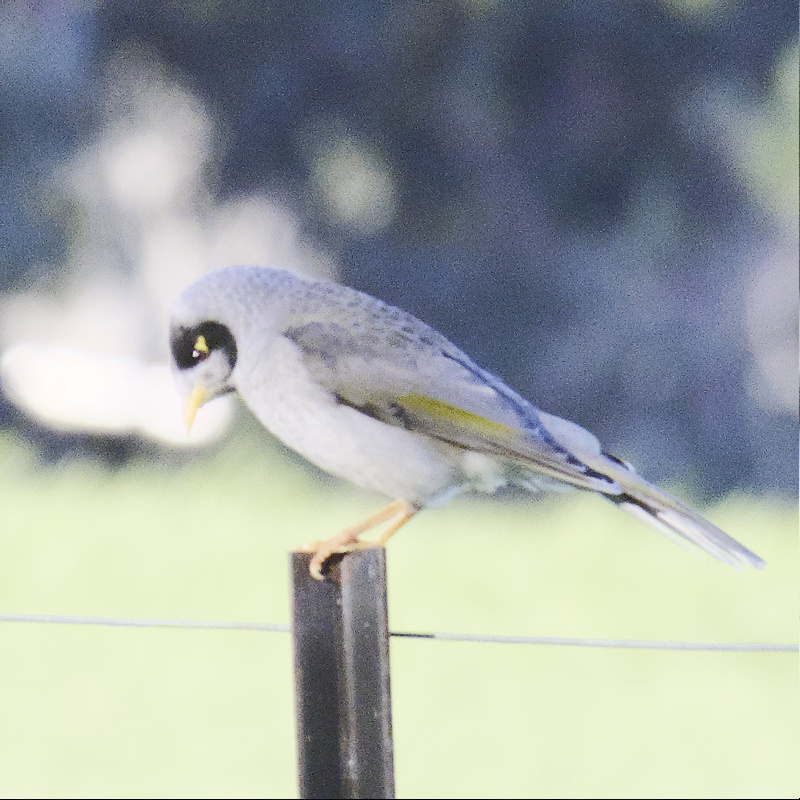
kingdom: Animalia
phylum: Chordata
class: Aves
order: Passeriformes
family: Meliphagidae
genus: Manorina
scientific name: Manorina melanocephala
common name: Noisy miner
